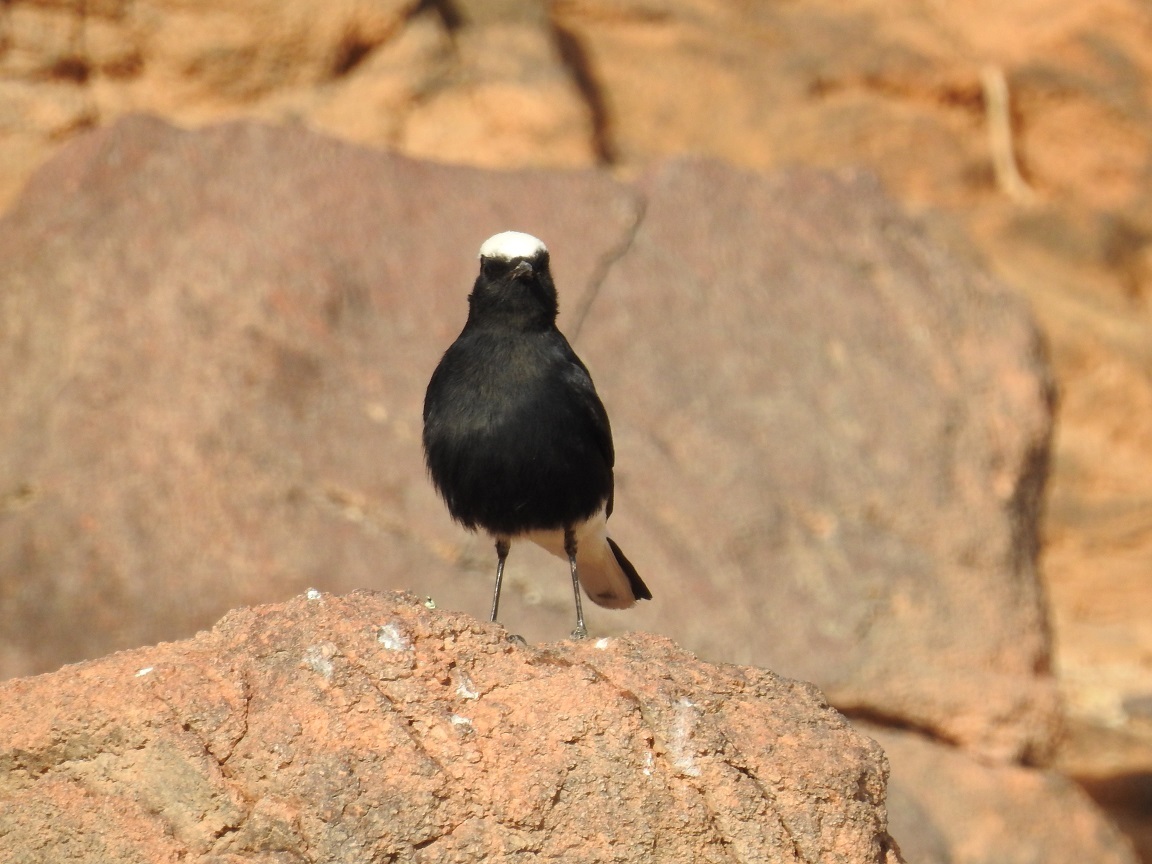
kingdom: Animalia
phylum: Chordata
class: Aves
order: Passeriformes
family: Muscicapidae
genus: Oenanthe
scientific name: Oenanthe leucopyga
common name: White-crowned wheatear
